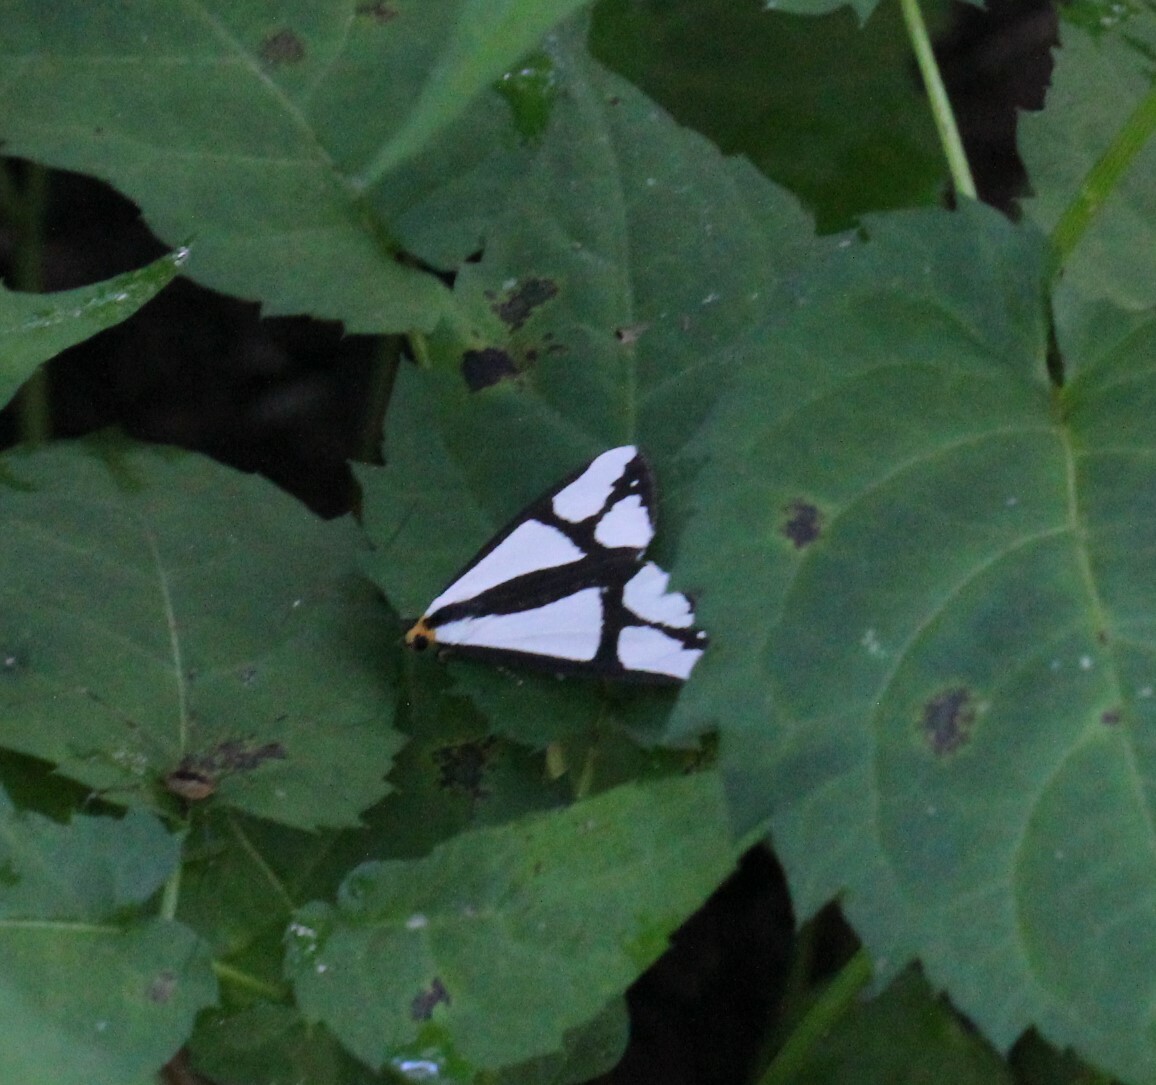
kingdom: Animalia
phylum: Arthropoda
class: Insecta
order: Lepidoptera
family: Erebidae
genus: Haploa
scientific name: Haploa contigua
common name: Neighbor moth
